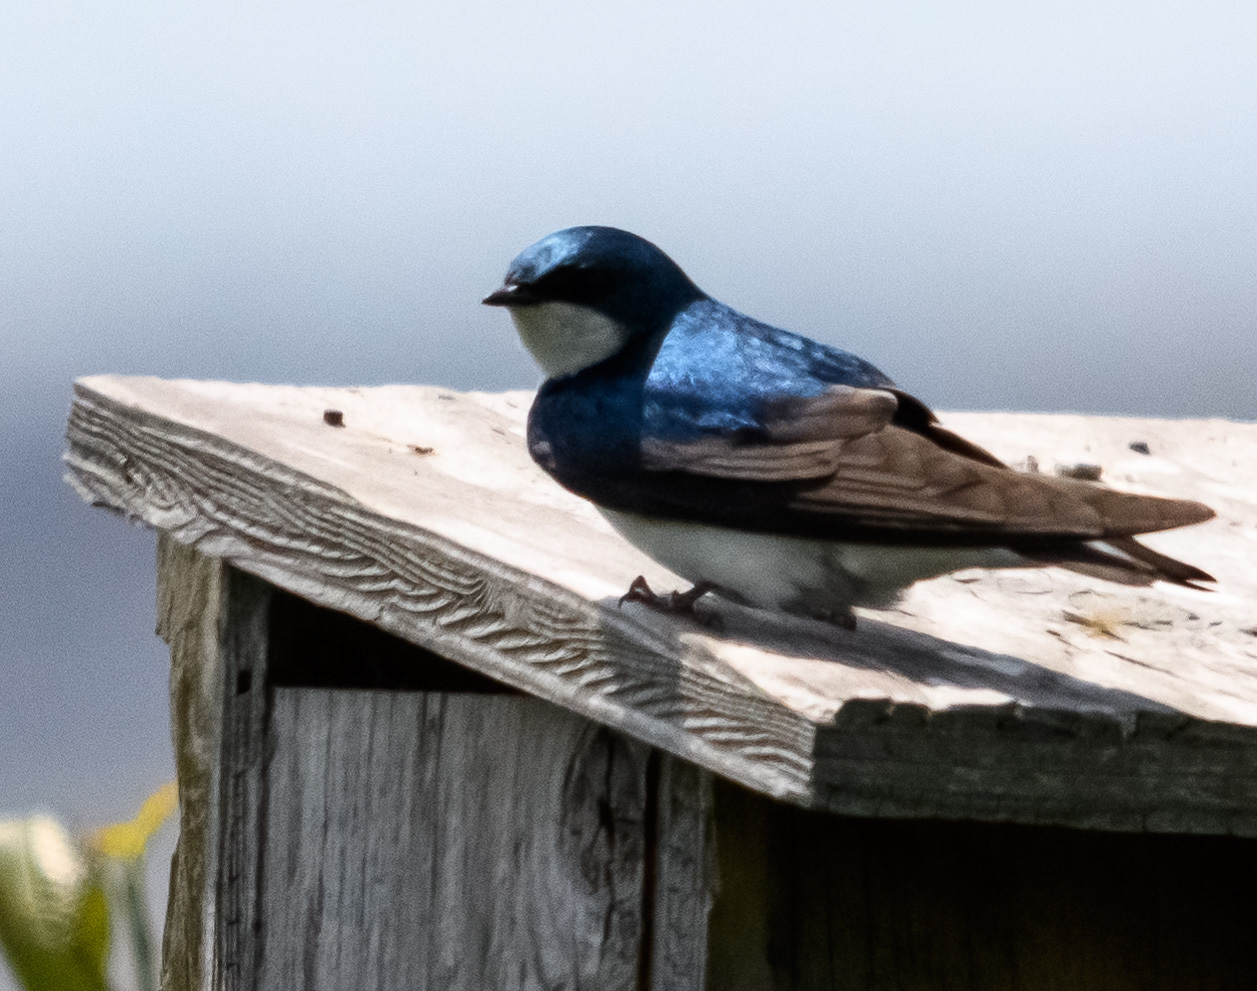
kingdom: Animalia
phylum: Chordata
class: Aves
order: Passeriformes
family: Hirundinidae
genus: Tachycineta
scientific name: Tachycineta bicolor
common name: Tree swallow
